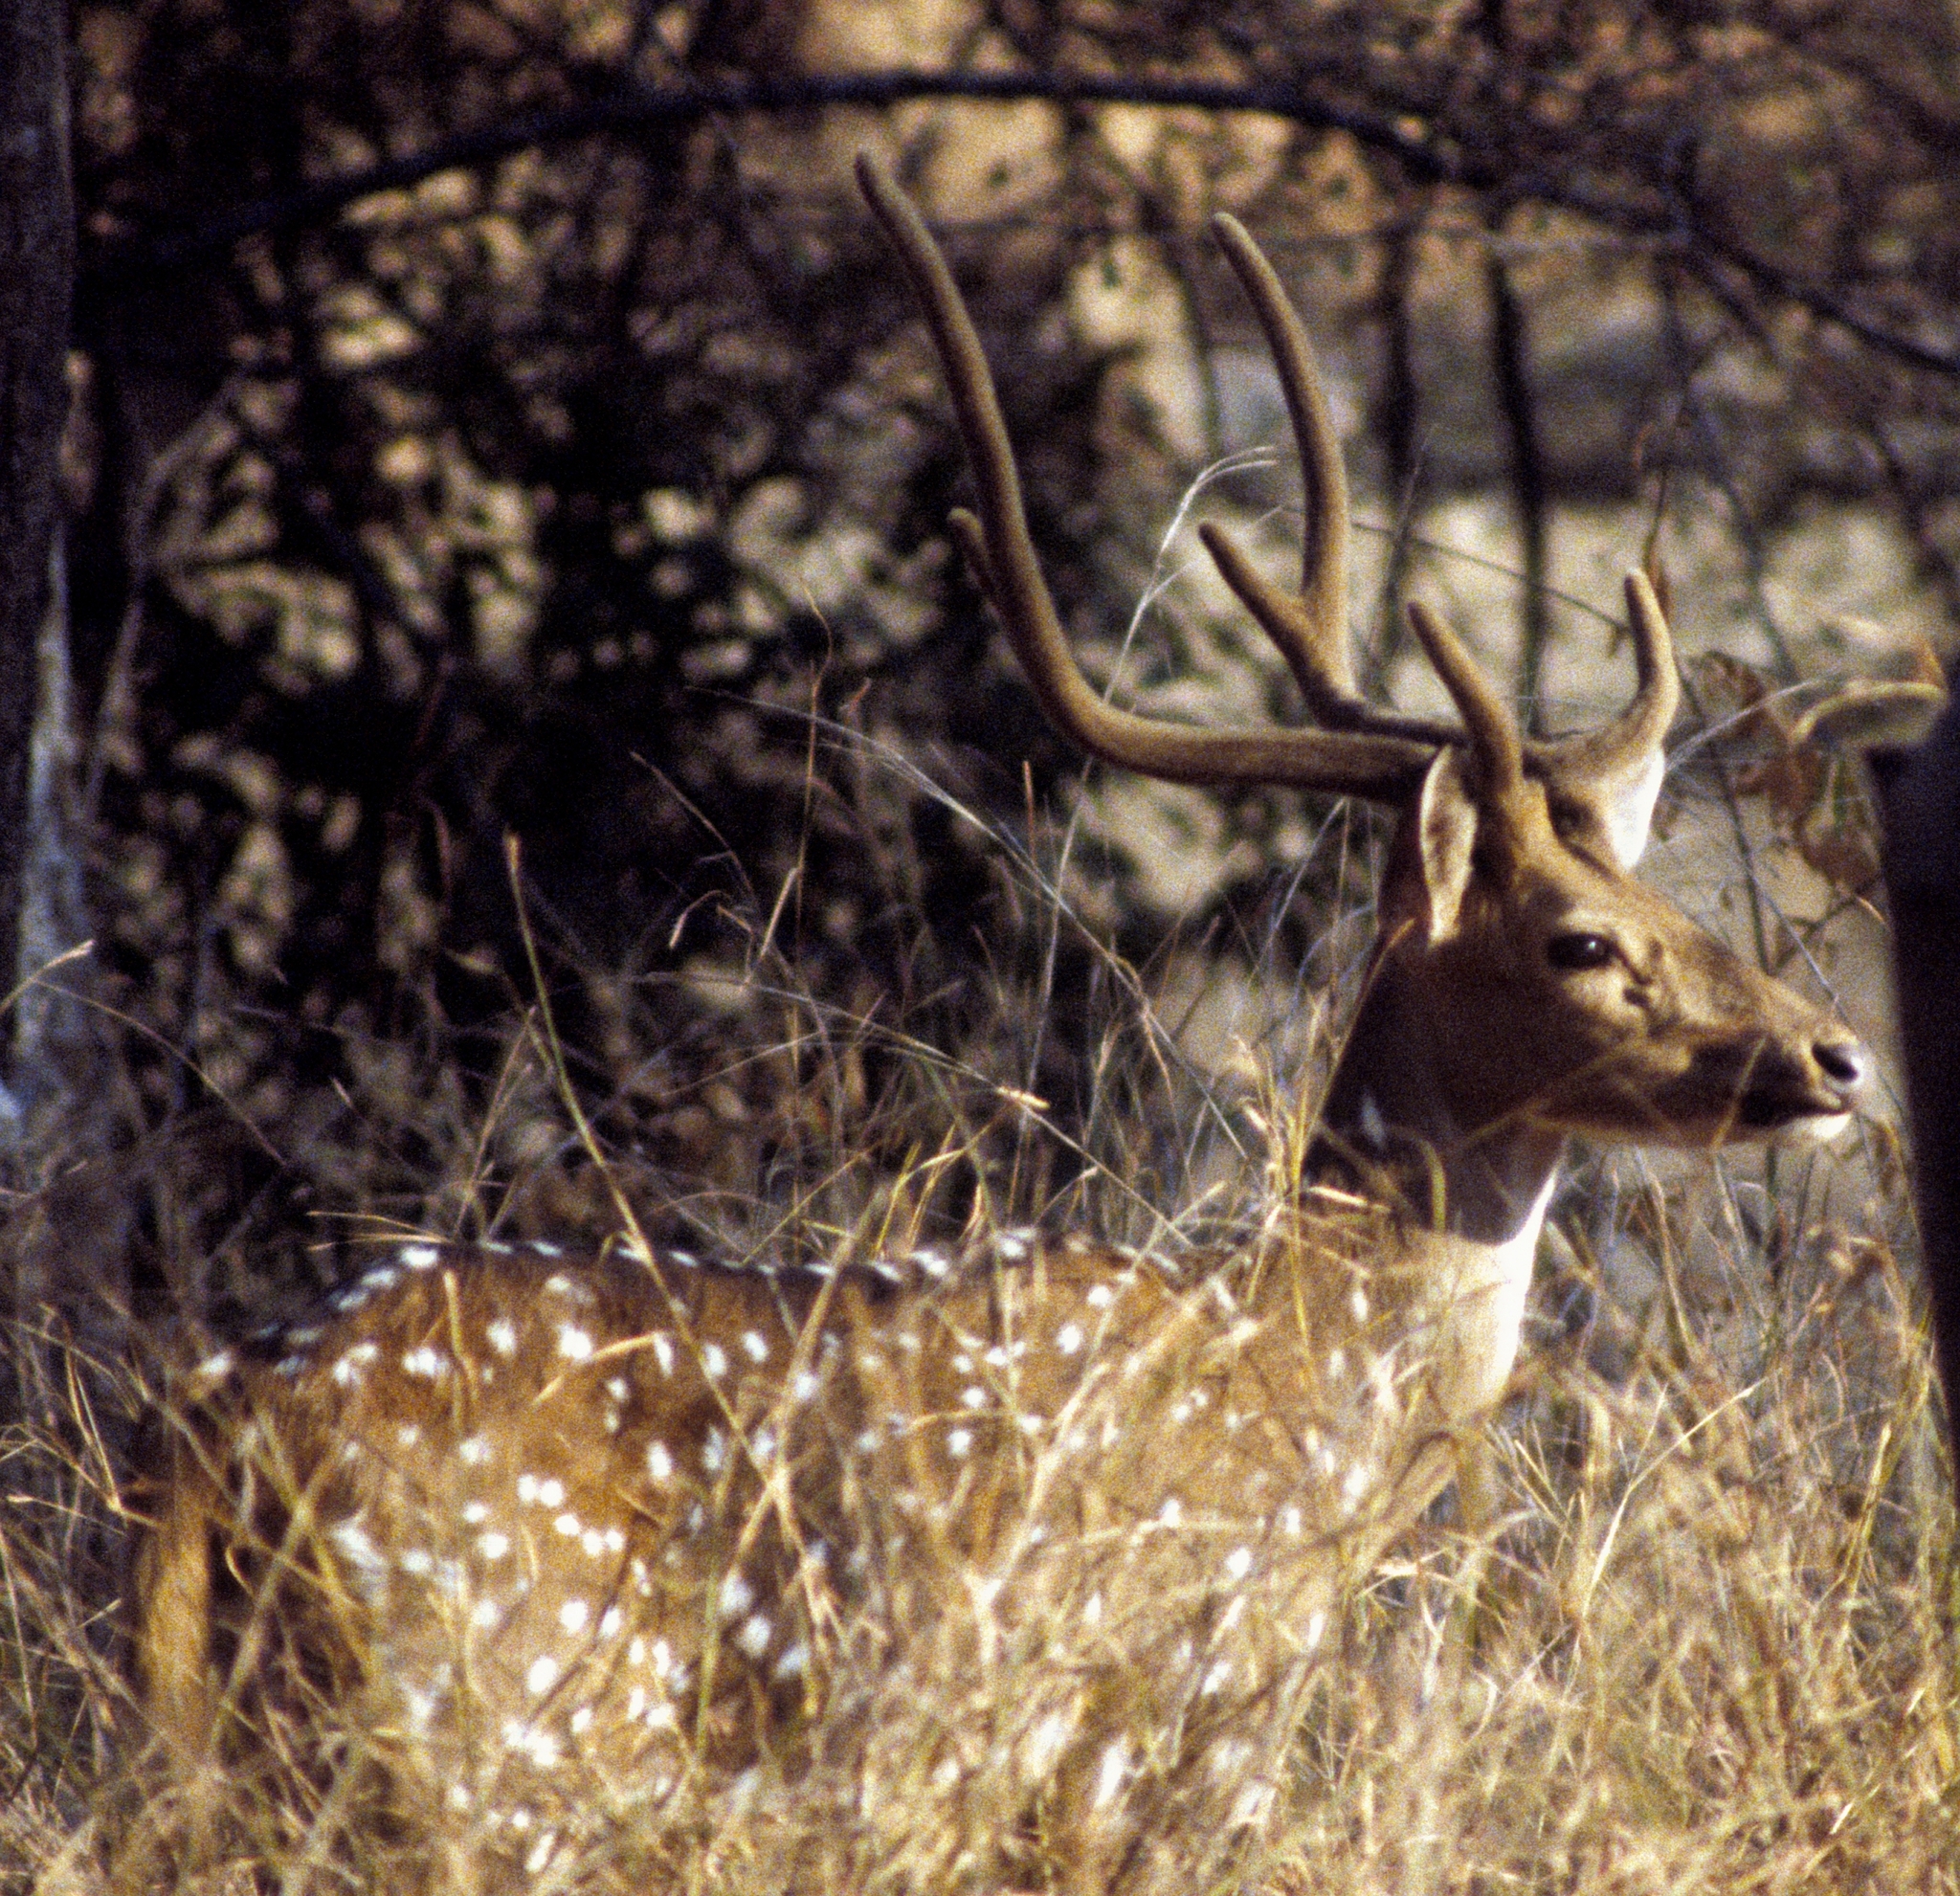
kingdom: Animalia
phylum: Chordata
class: Mammalia
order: Artiodactyla
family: Cervidae
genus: Axis
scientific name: Axis axis
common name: Chital
